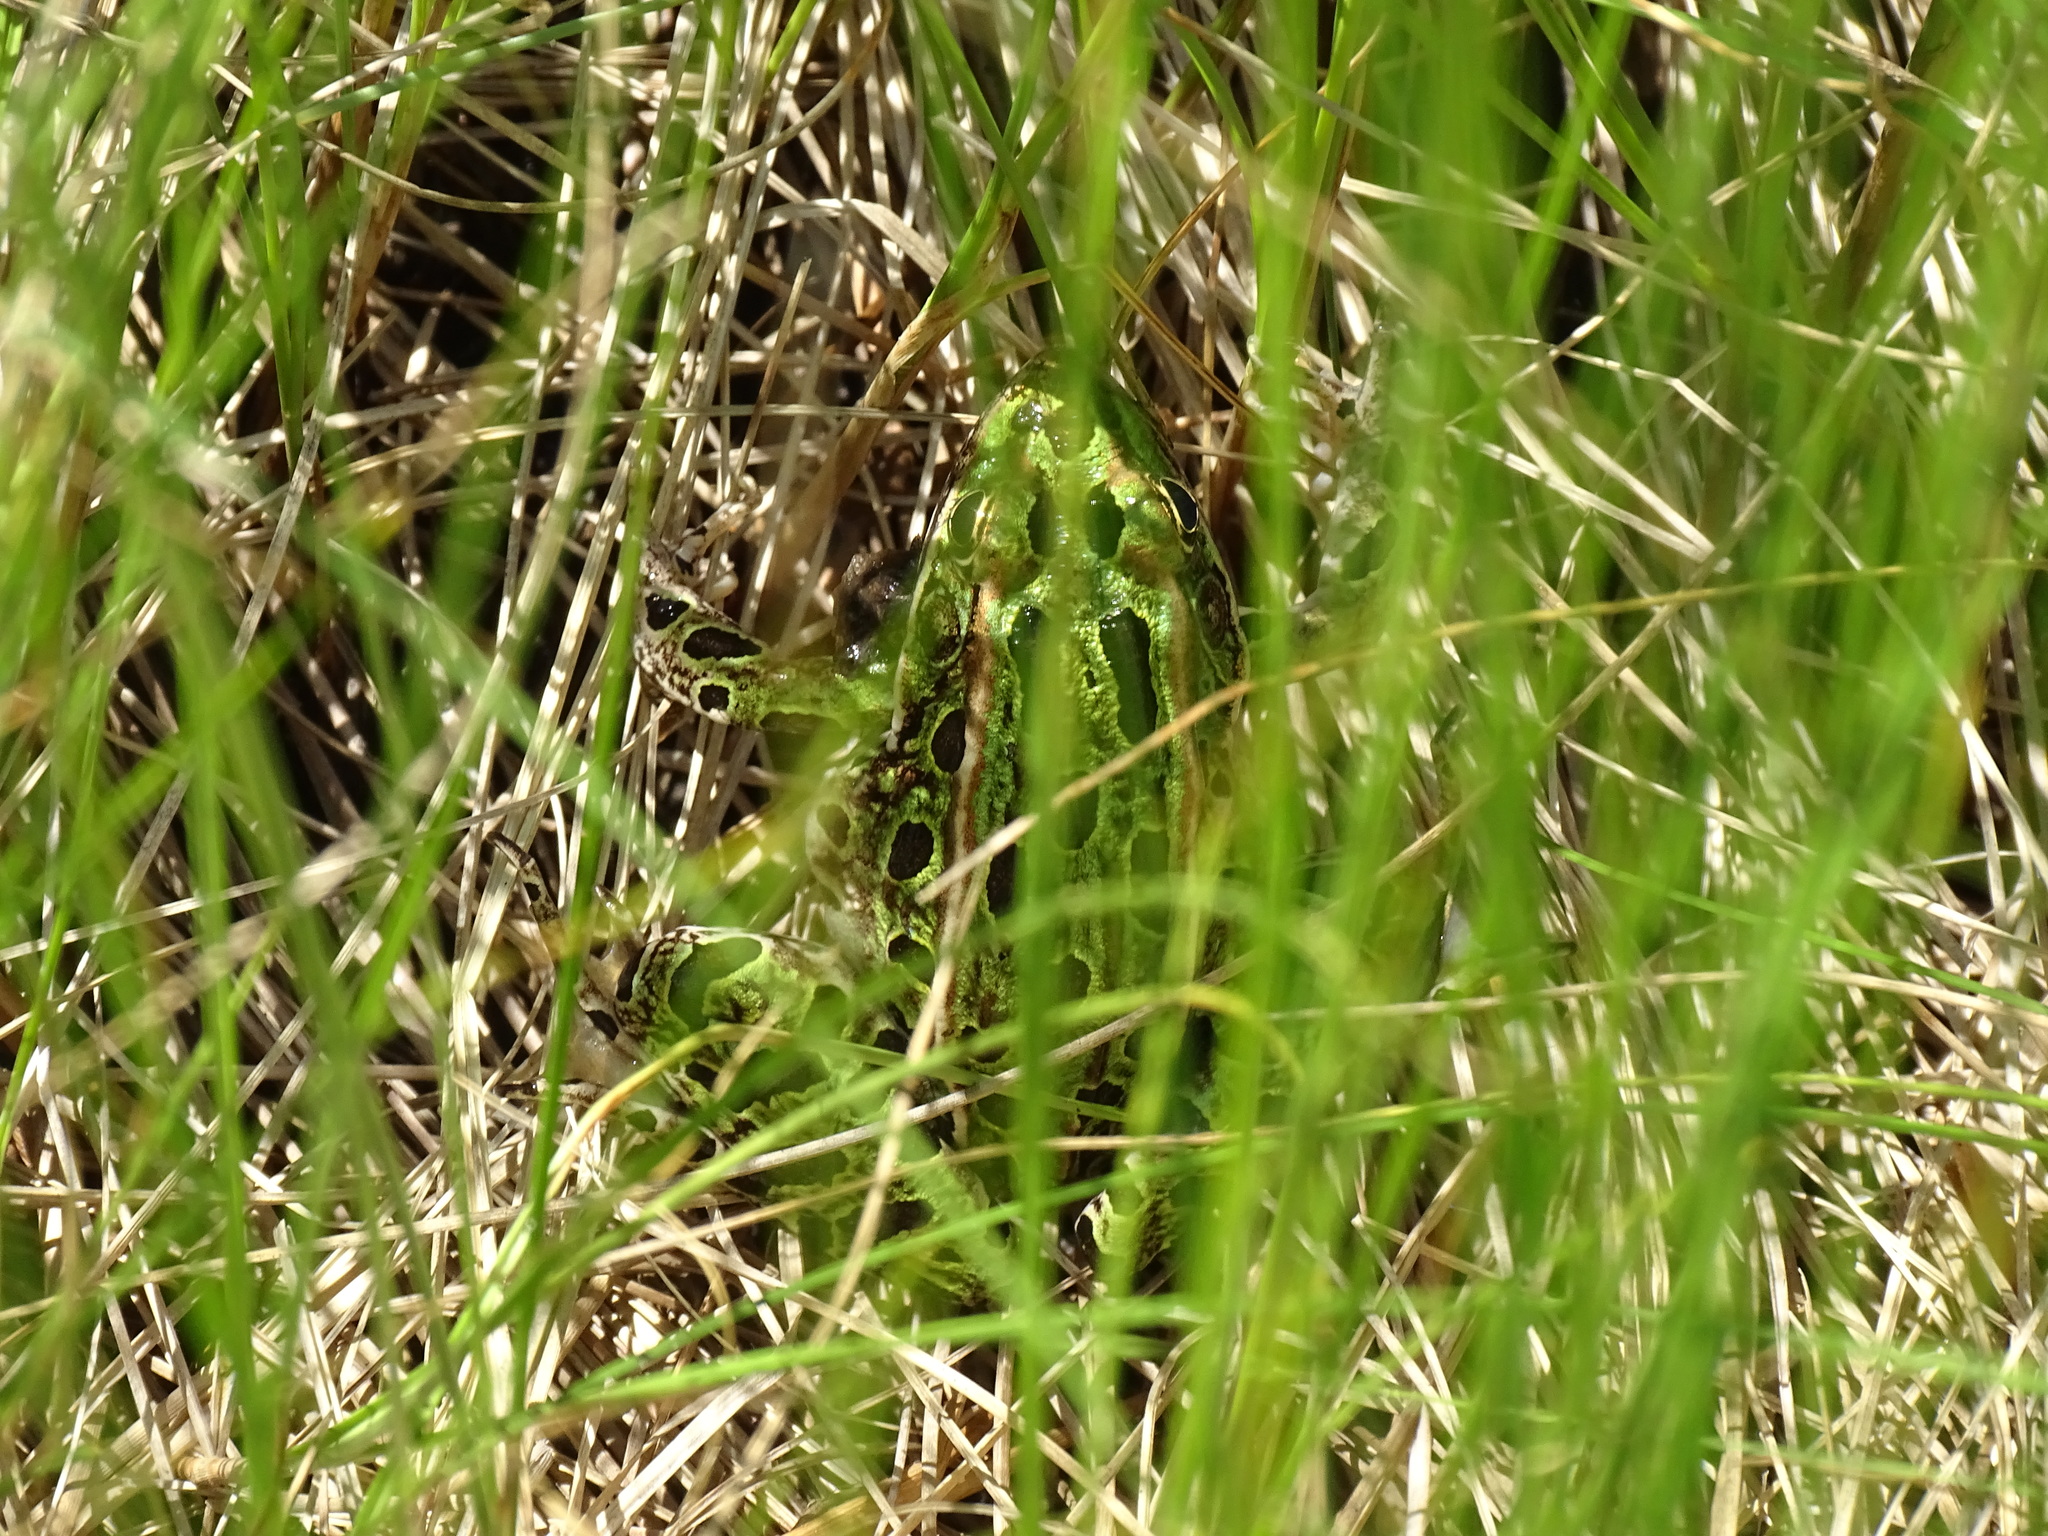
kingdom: Animalia
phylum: Chordata
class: Amphibia
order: Anura
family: Ranidae
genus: Lithobates
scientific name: Lithobates pipiens
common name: Northern leopard frog
